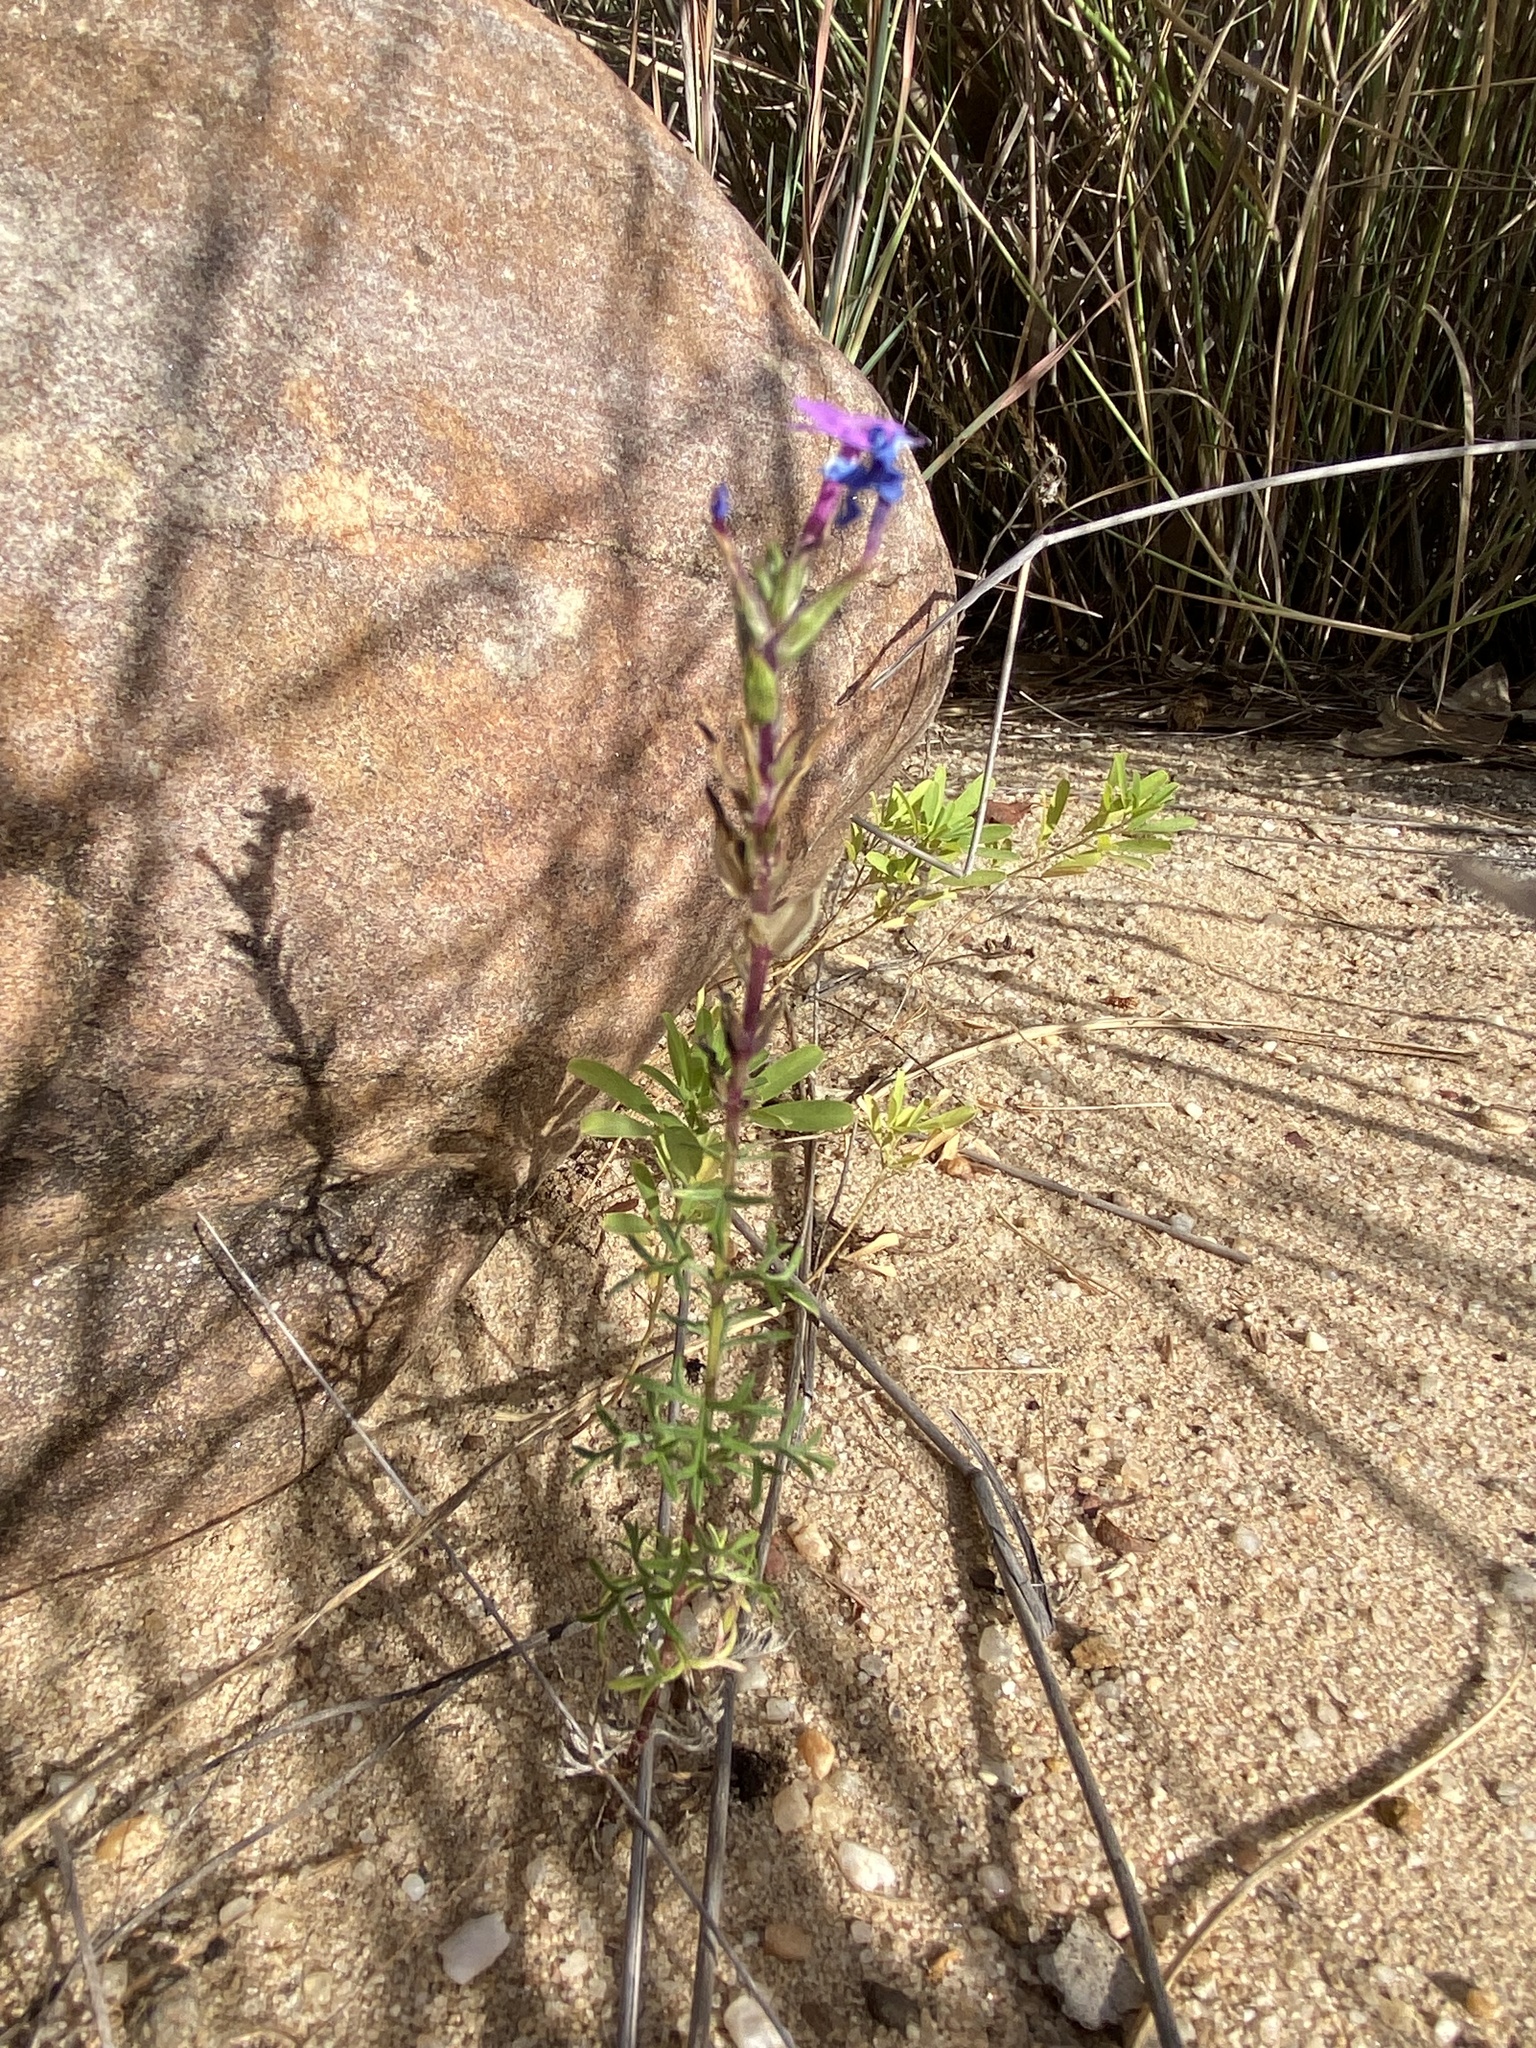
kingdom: Plantae
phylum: Tracheophyta
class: Magnoliopsida
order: Lamiales
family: Verbenaceae
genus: Verbena
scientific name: Verbena aristigera
